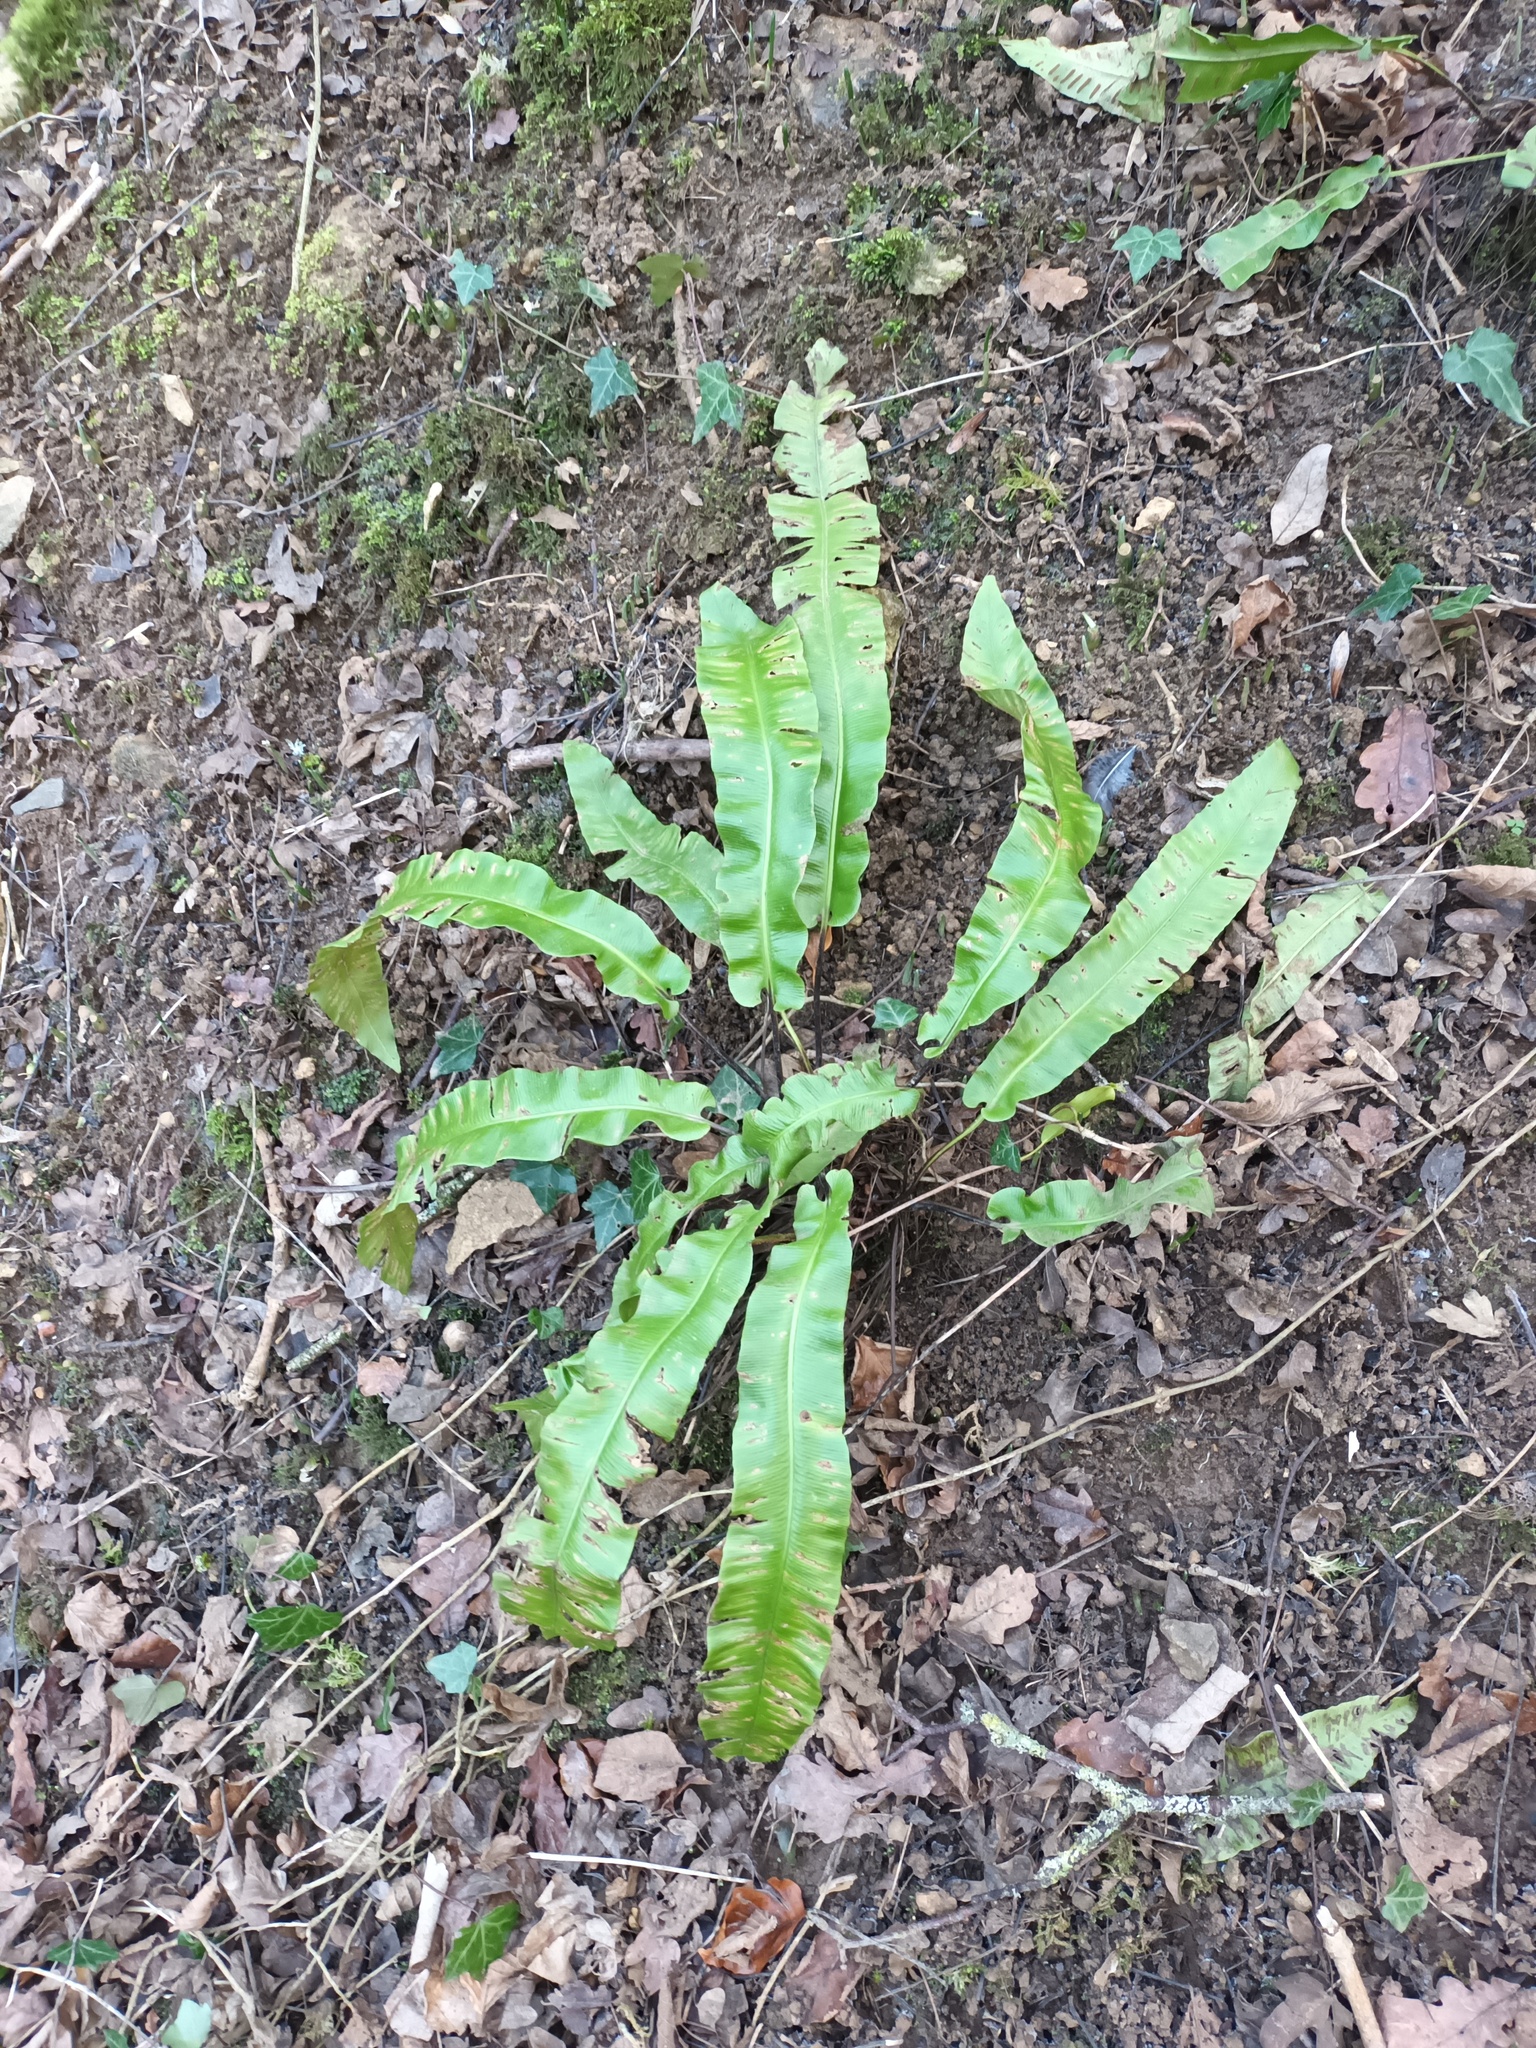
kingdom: Plantae
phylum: Tracheophyta
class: Polypodiopsida
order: Polypodiales
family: Aspleniaceae
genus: Asplenium
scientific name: Asplenium scolopendrium
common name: Hart's-tongue fern
